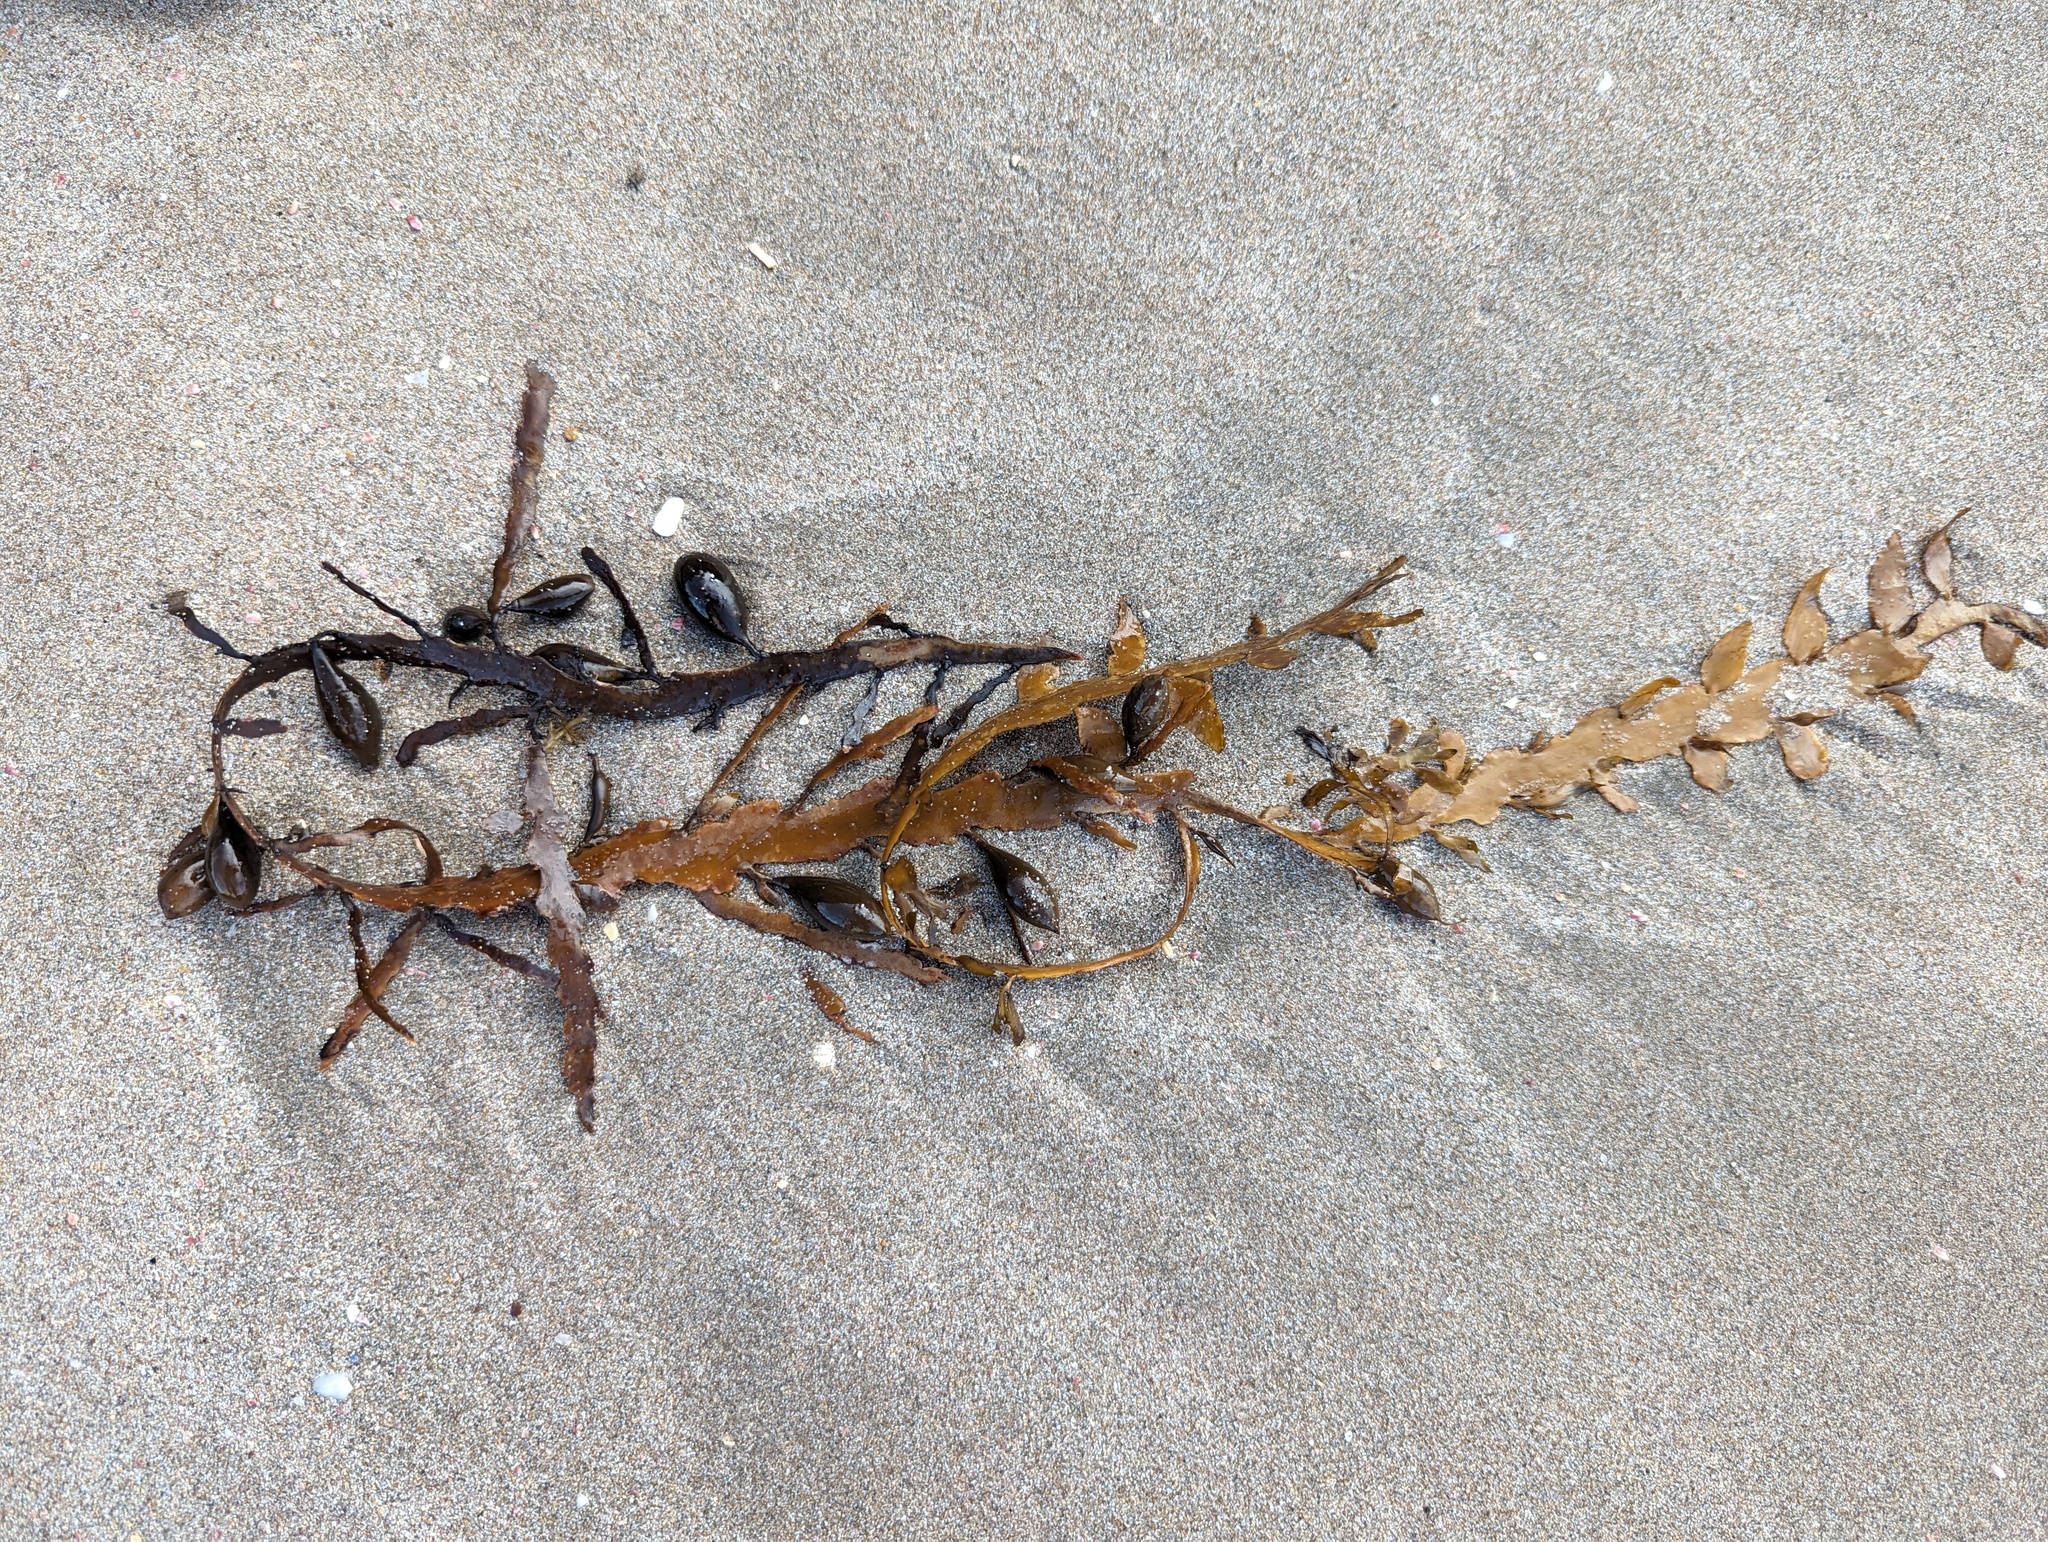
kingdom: Chromista
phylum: Ochrophyta
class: Phaeophyceae
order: Fucales
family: Sargassaceae
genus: Carpophyllum
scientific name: Carpophyllum maschalocarpum
